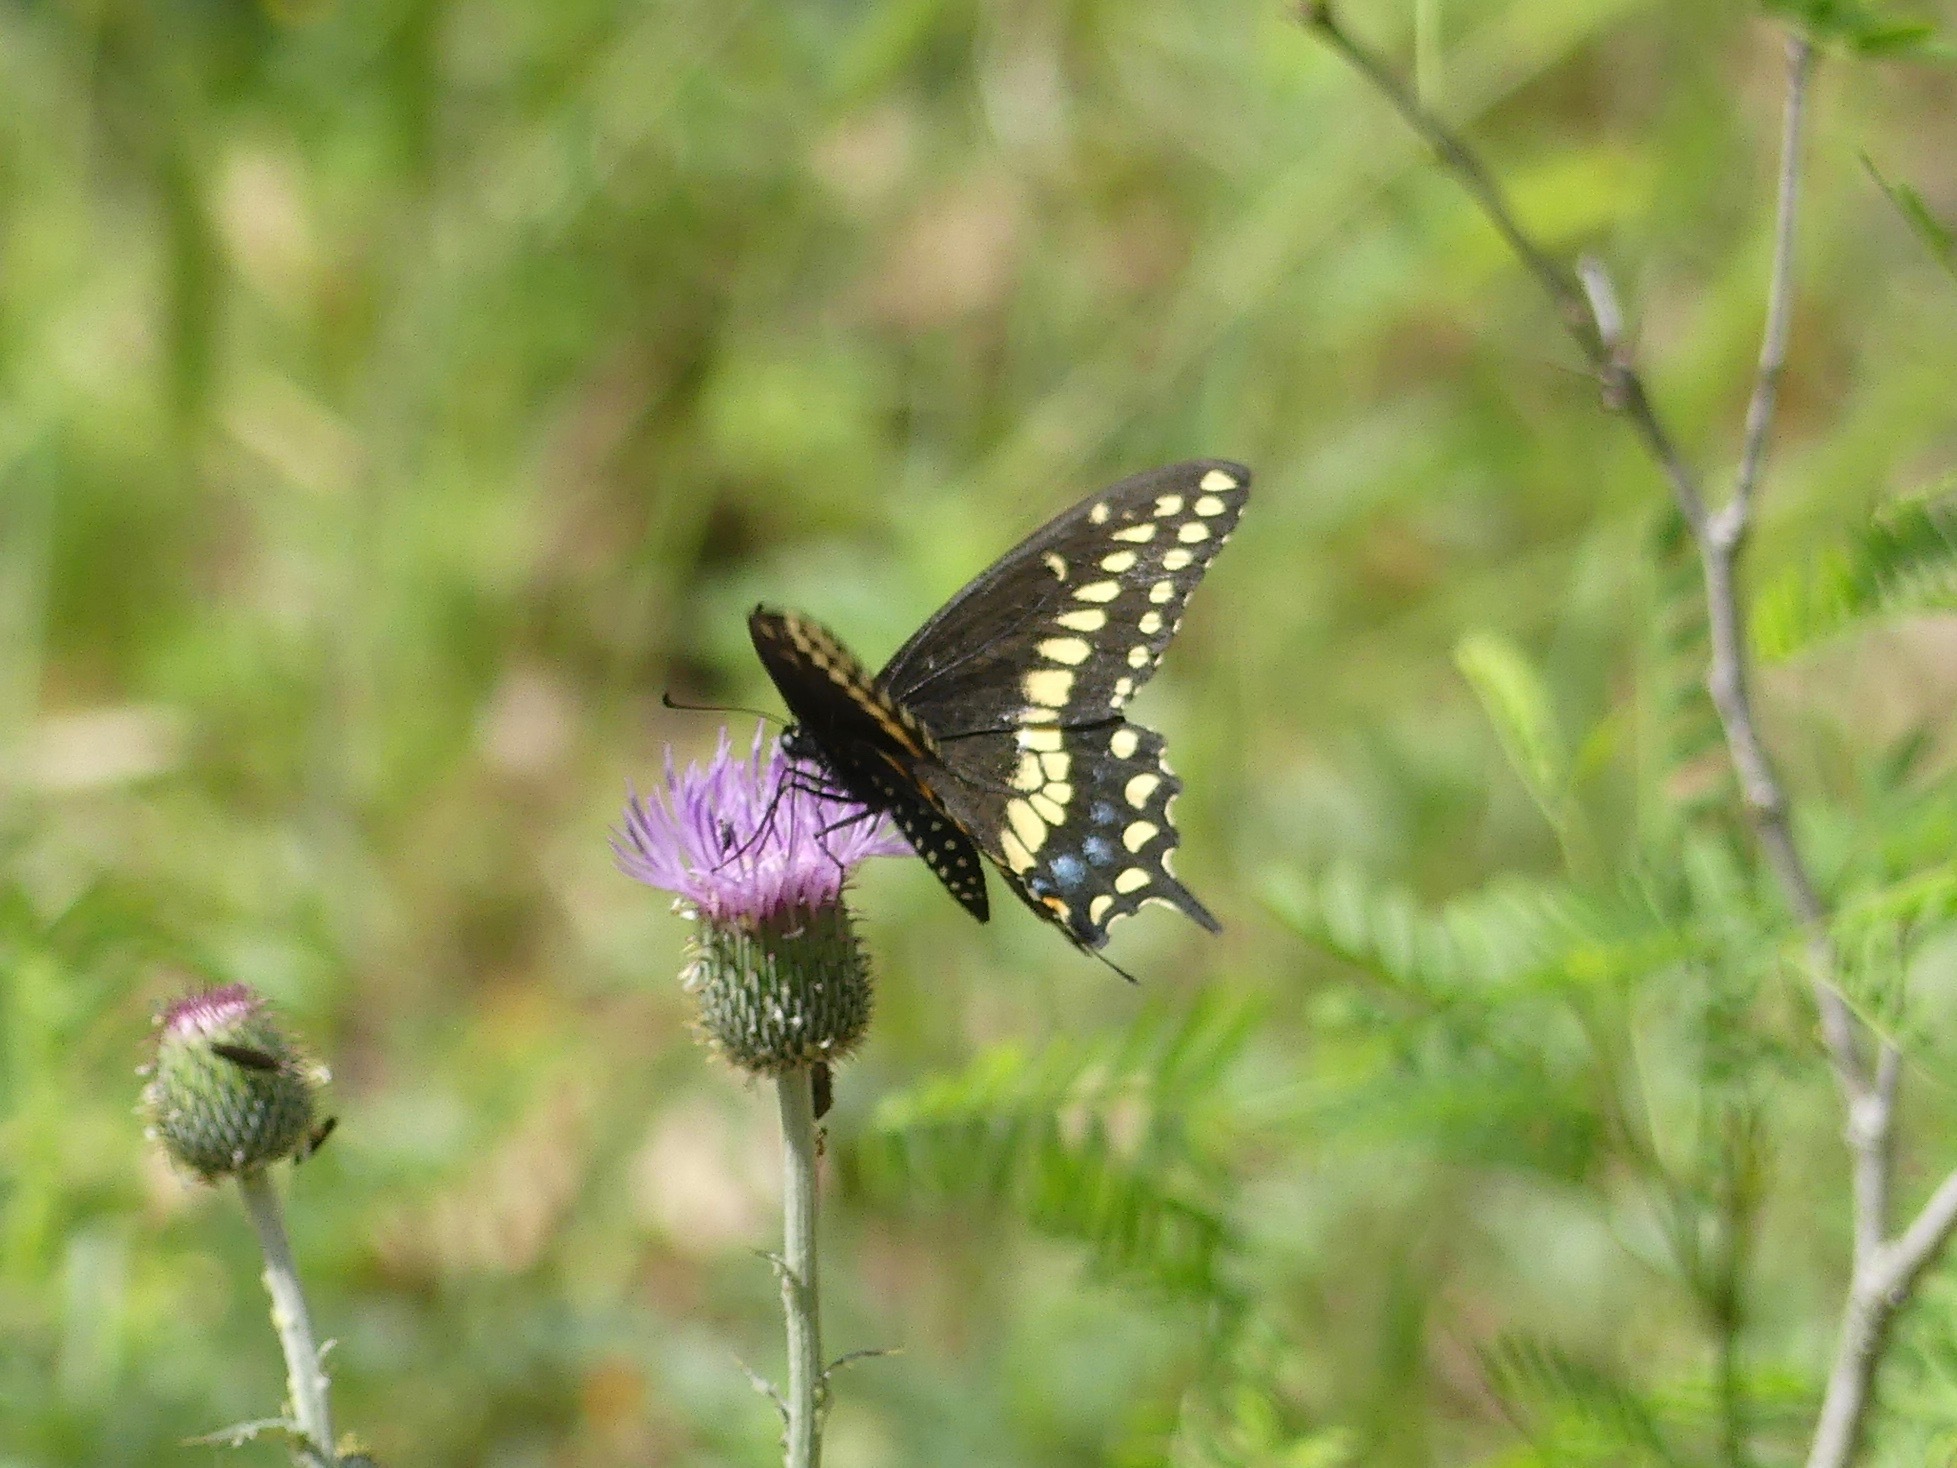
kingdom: Animalia
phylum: Arthropoda
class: Insecta
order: Lepidoptera
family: Papilionidae
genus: Papilio
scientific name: Papilio polyxenes
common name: Black swallowtail
